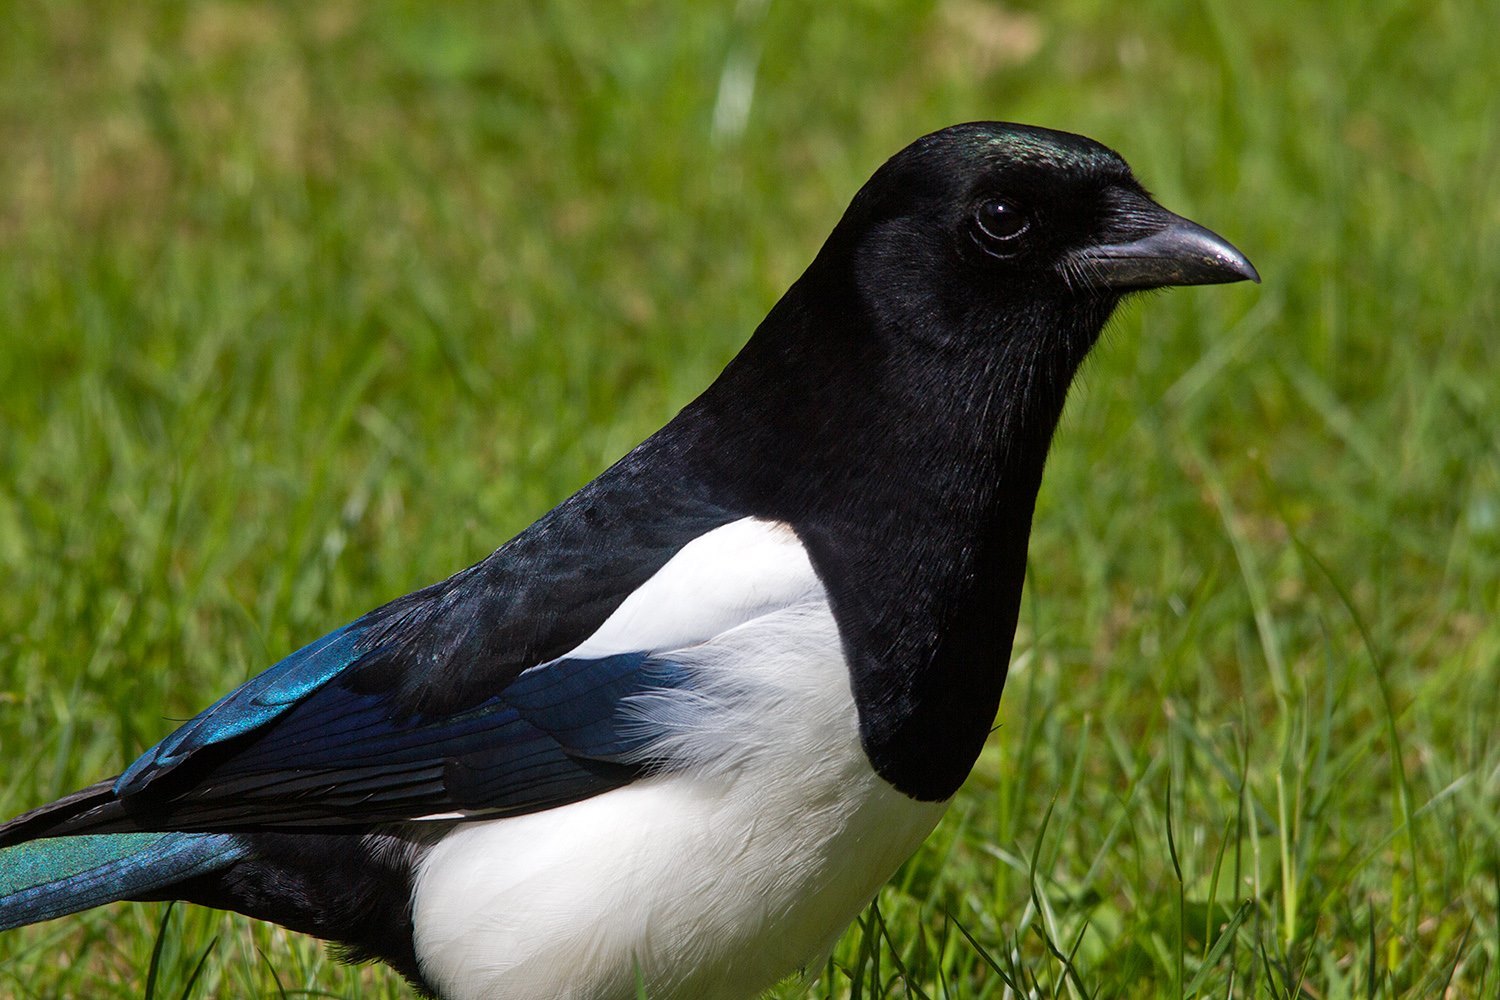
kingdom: Animalia
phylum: Chordata
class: Aves
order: Passeriformes
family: Corvidae
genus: Pica
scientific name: Pica pica
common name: Eurasian magpie
